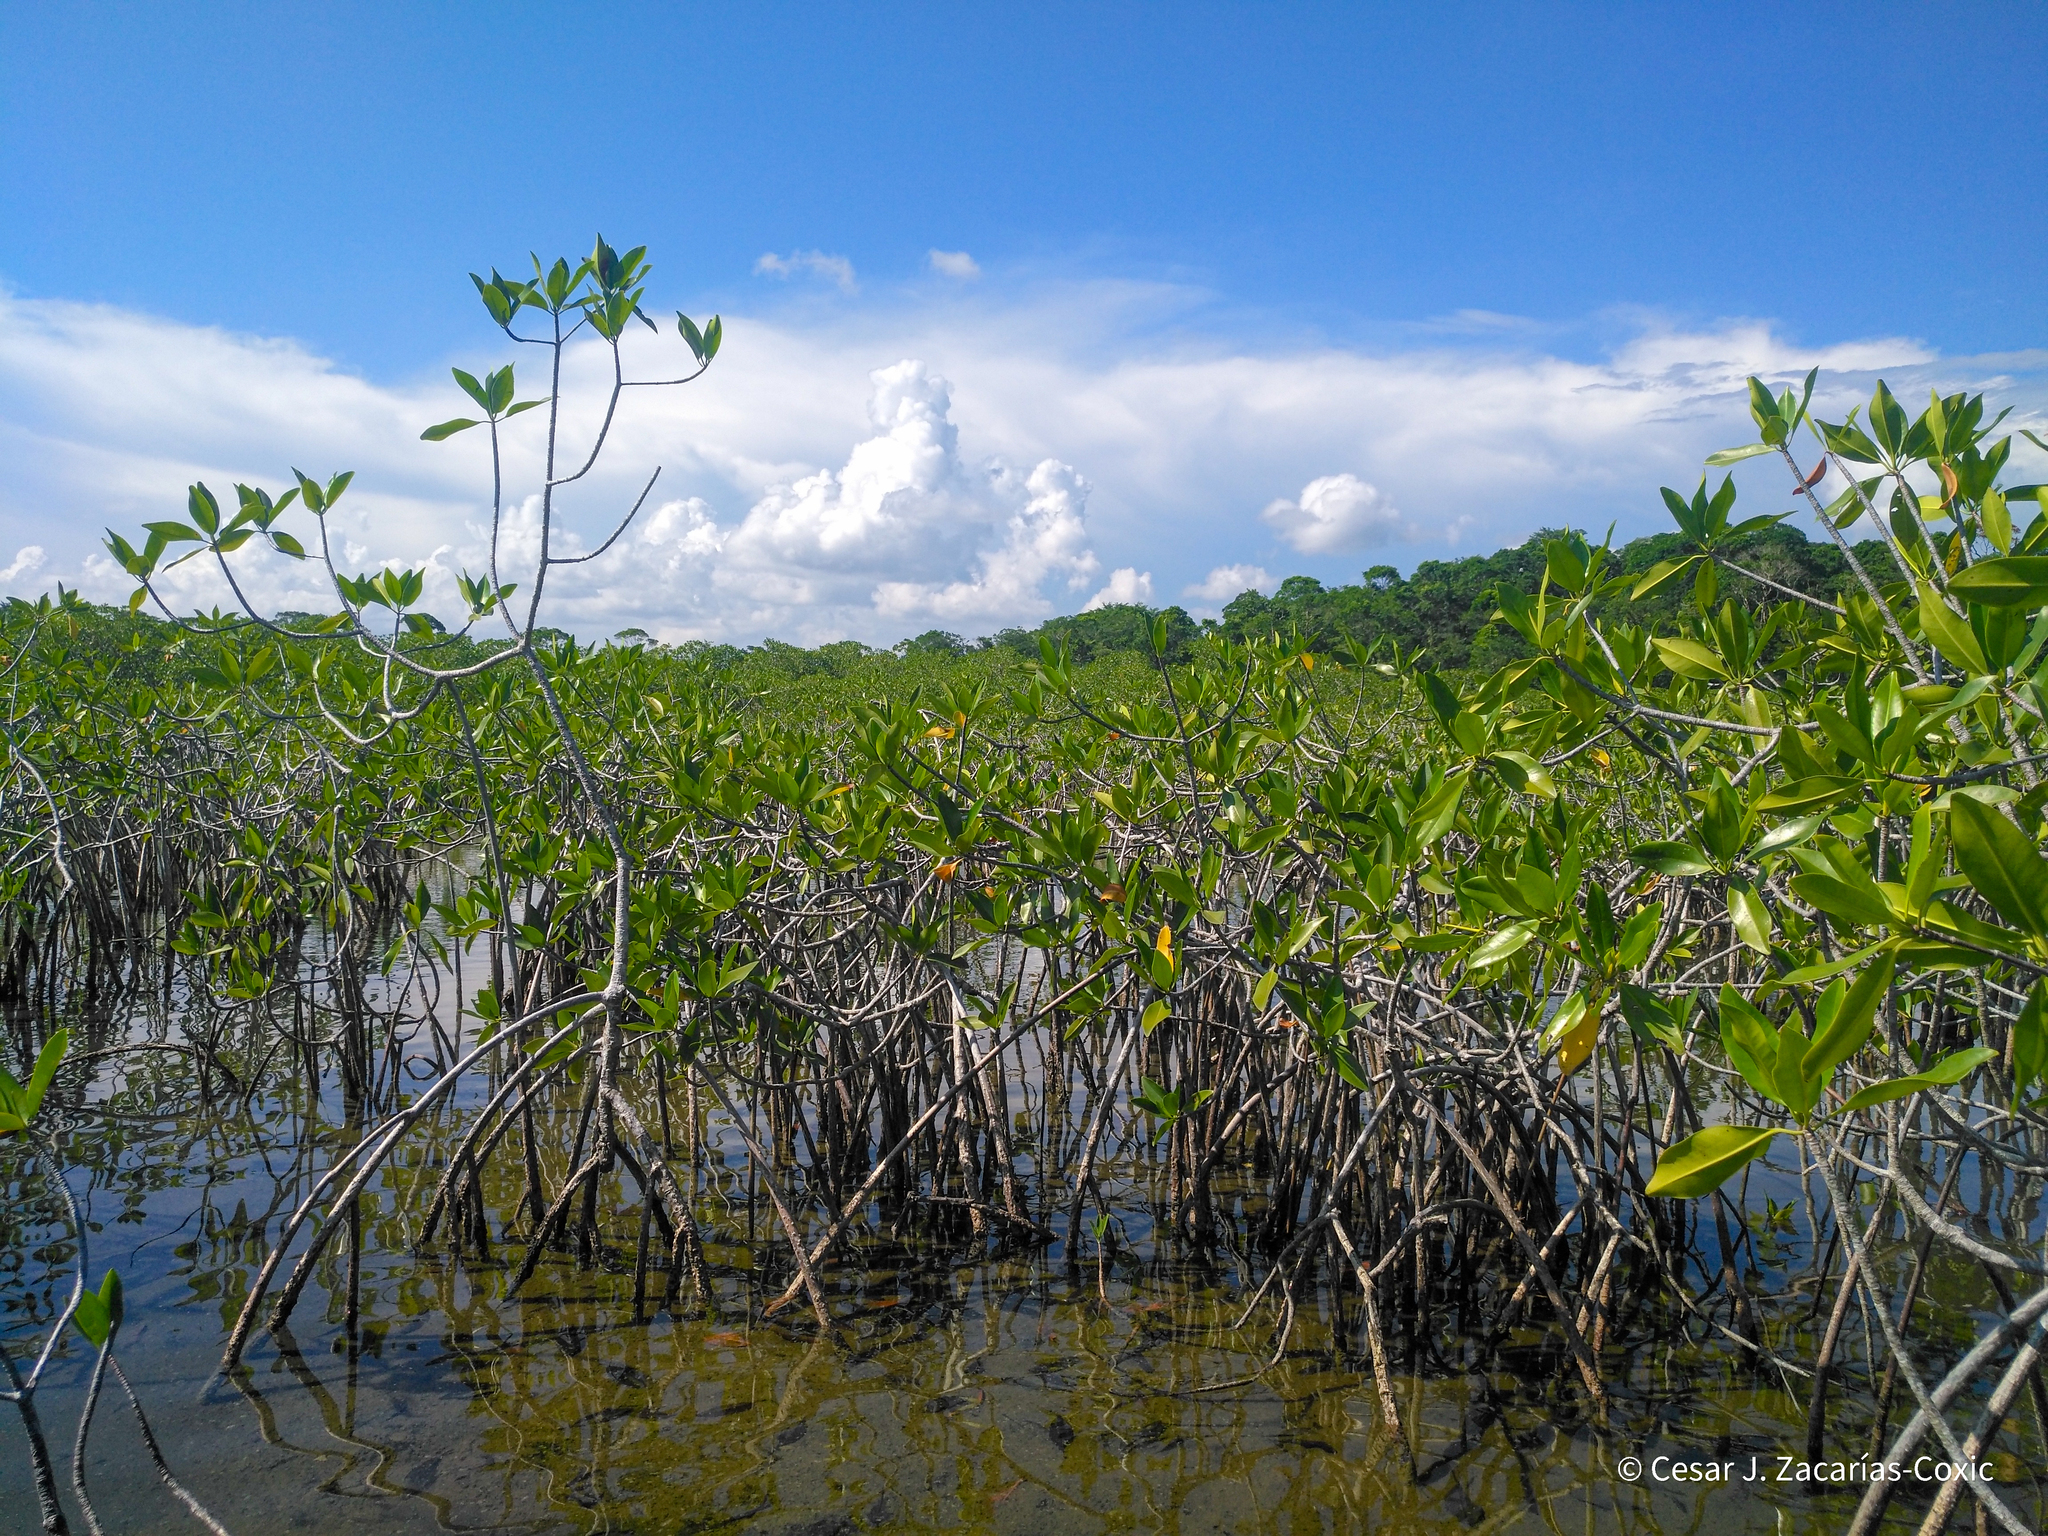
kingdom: Plantae
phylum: Tracheophyta
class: Magnoliopsida
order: Malpighiales
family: Rhizophoraceae
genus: Rhizophora
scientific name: Rhizophora mangle
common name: Red mangrove
